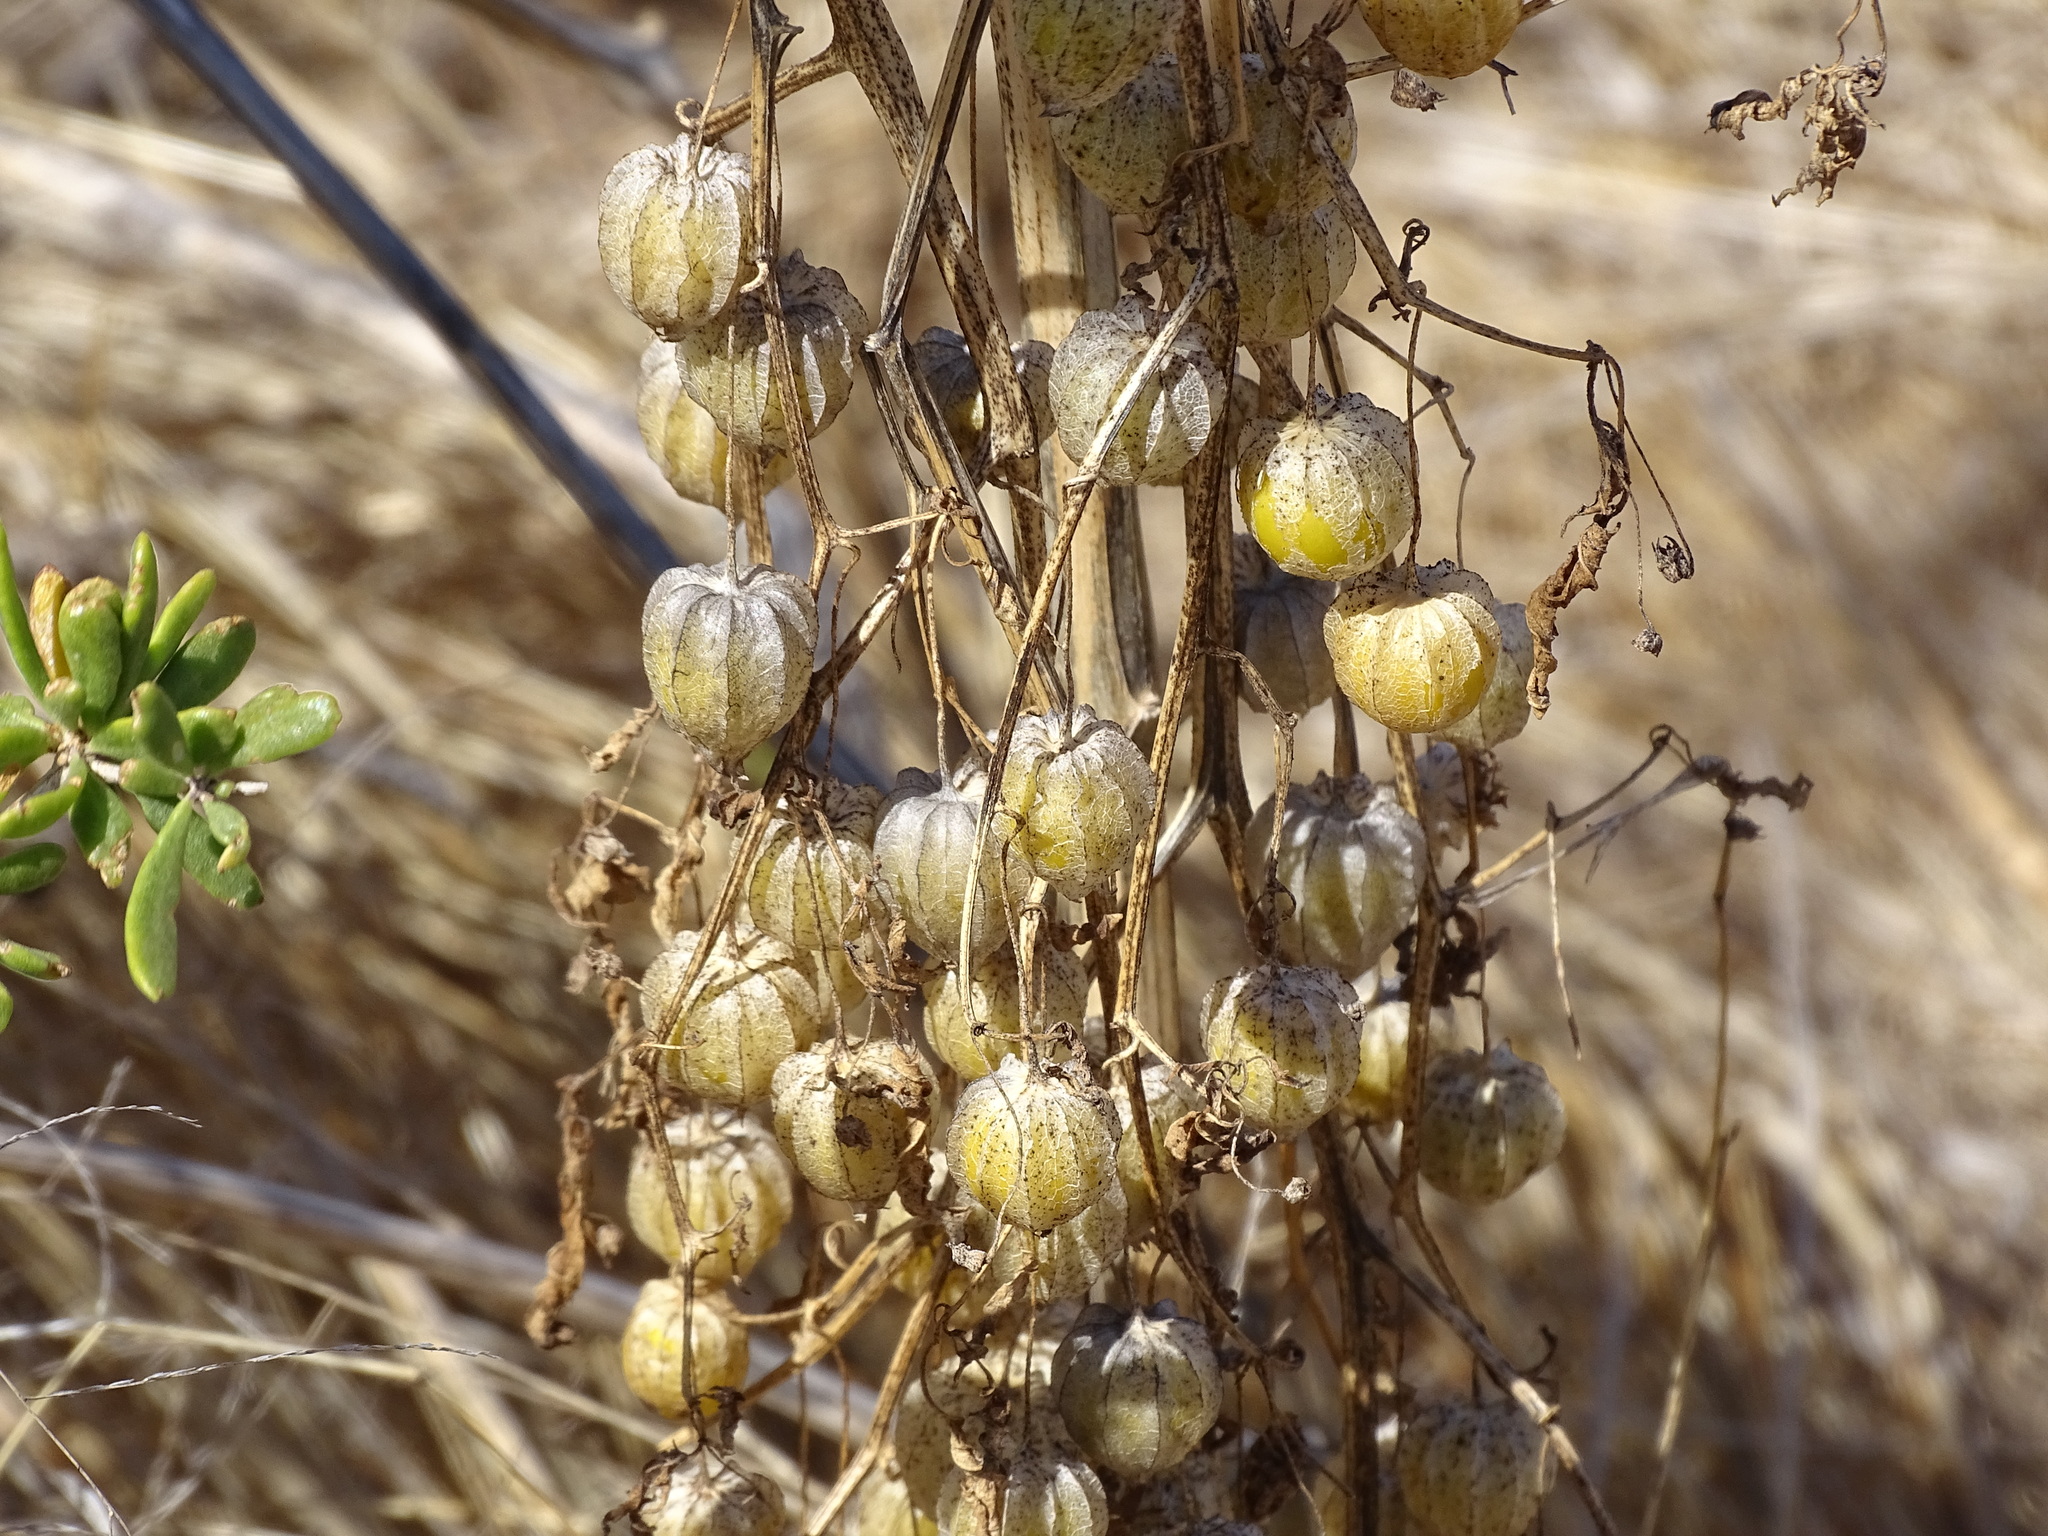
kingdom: Plantae
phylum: Tracheophyta
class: Magnoliopsida
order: Solanales
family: Solanaceae
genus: Physalis
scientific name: Physalis acutifolia
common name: Wright's ground-cherry
